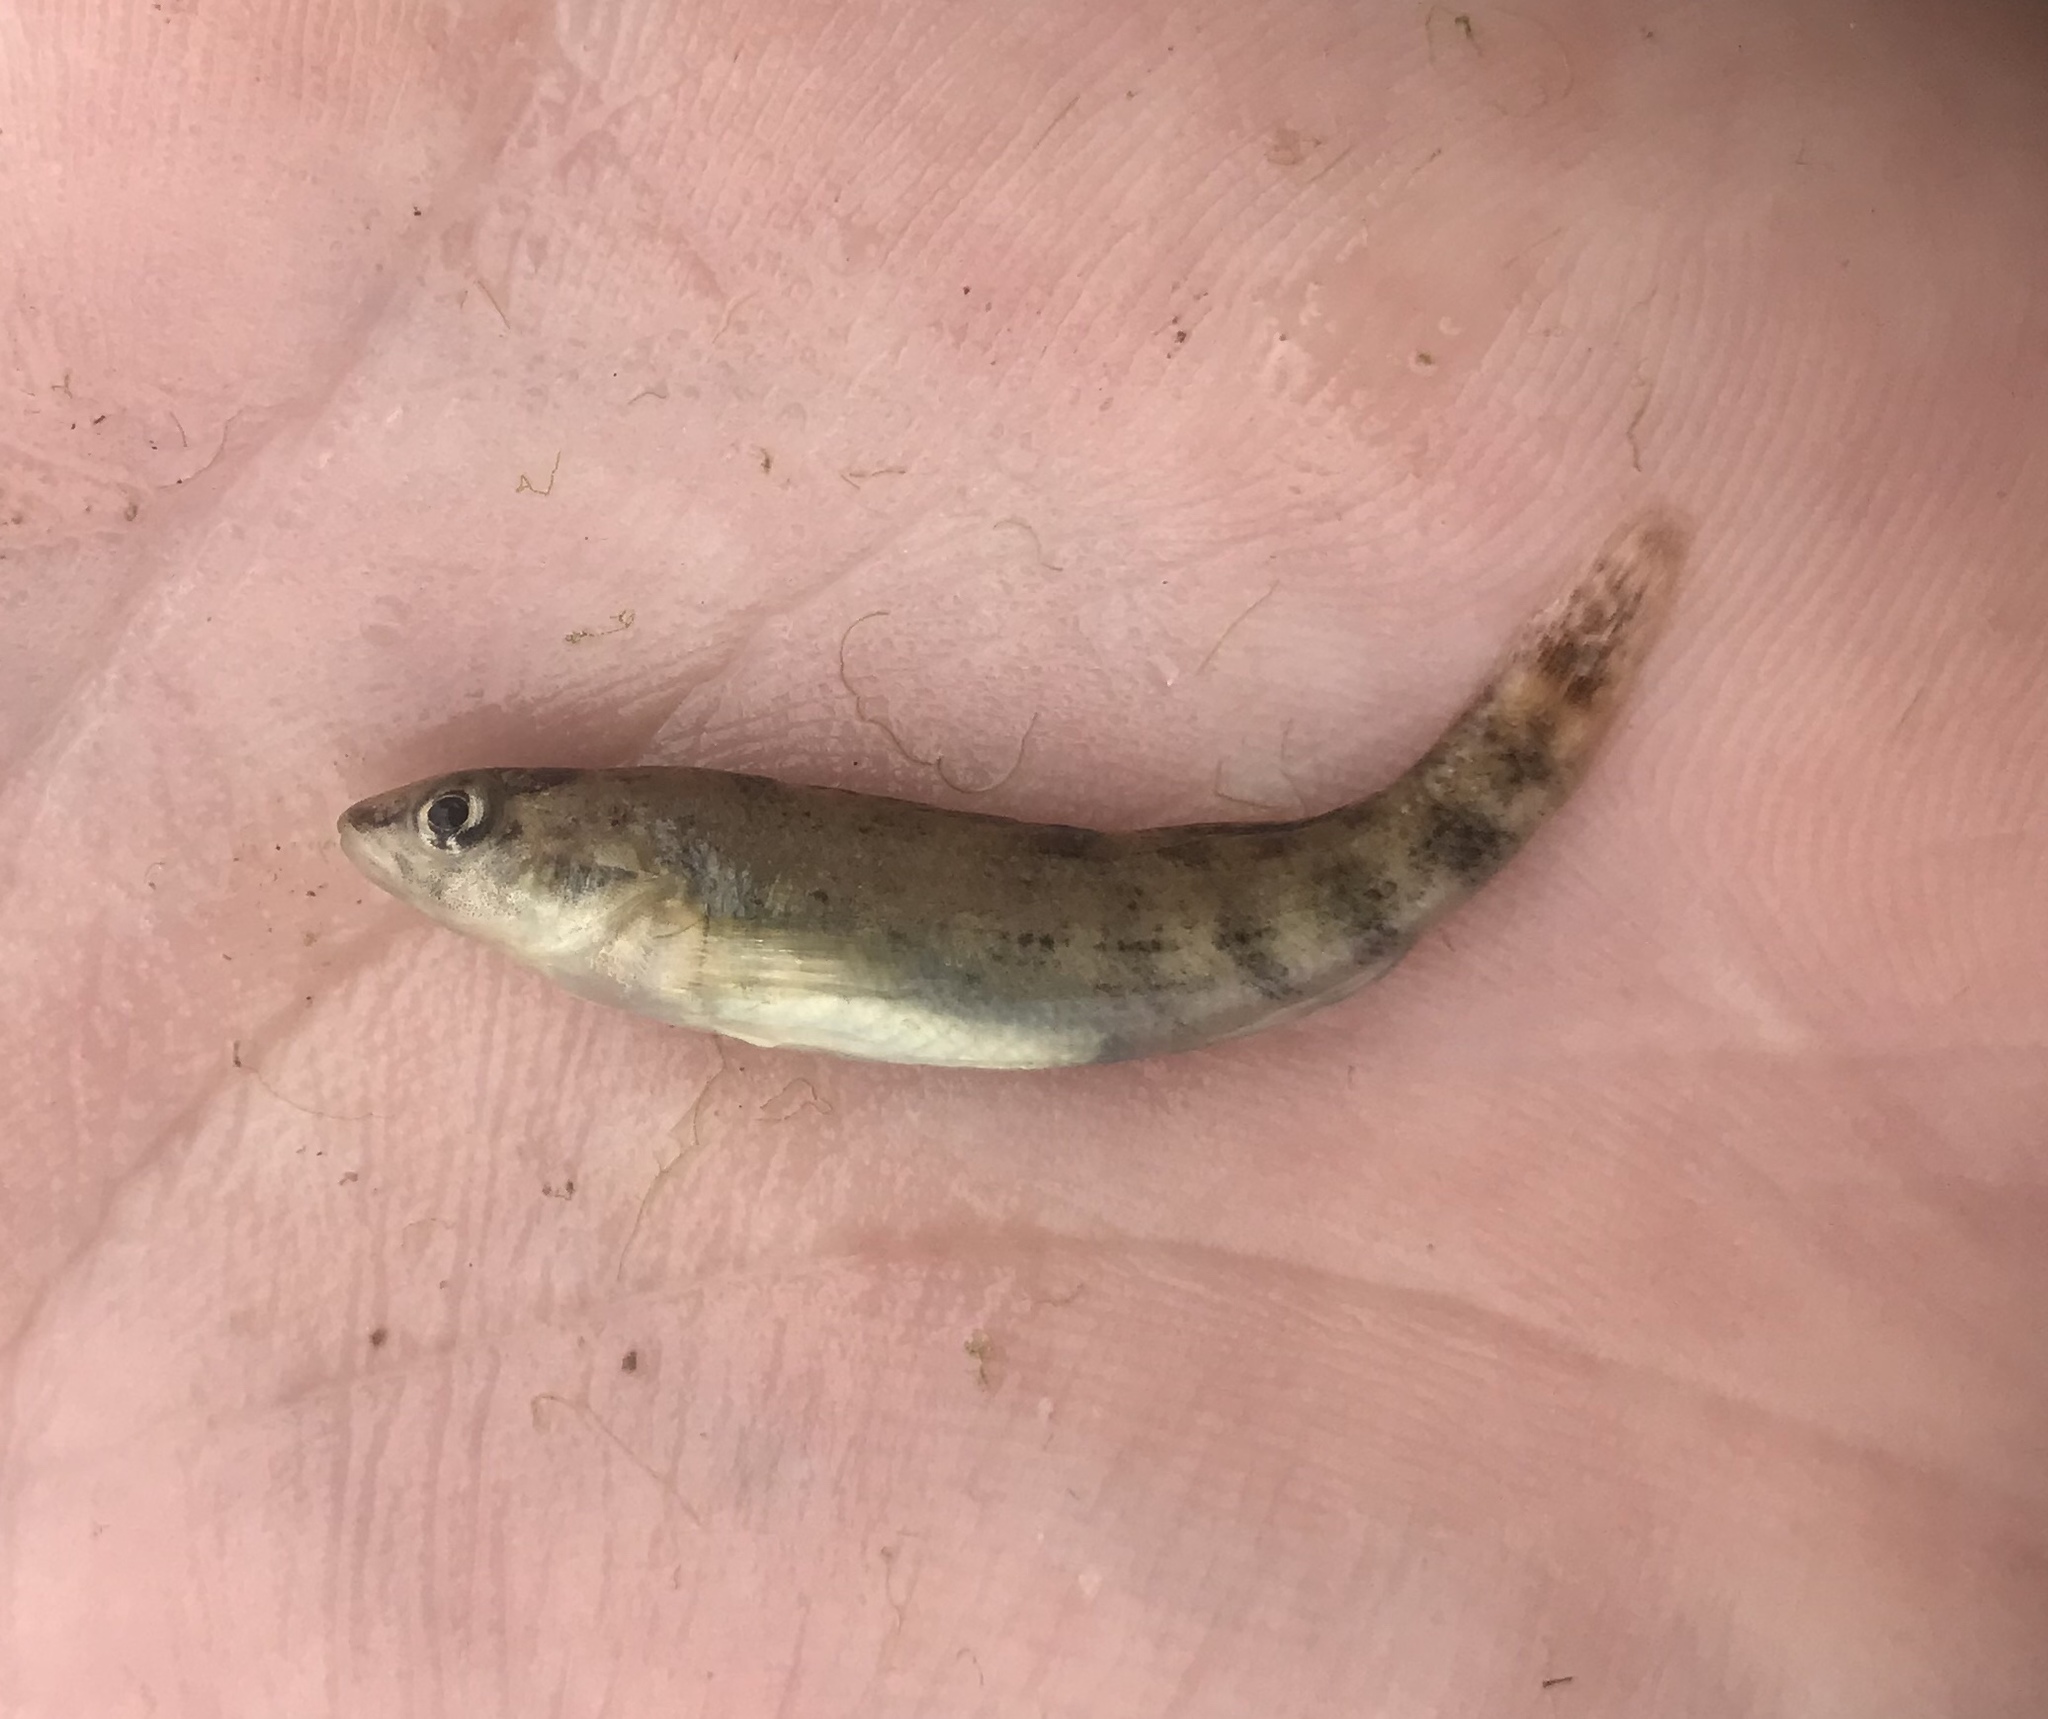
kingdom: Animalia
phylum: Chordata
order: Perciformes
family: Percidae
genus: Etheostoma
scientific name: Etheostoma pulchellum
